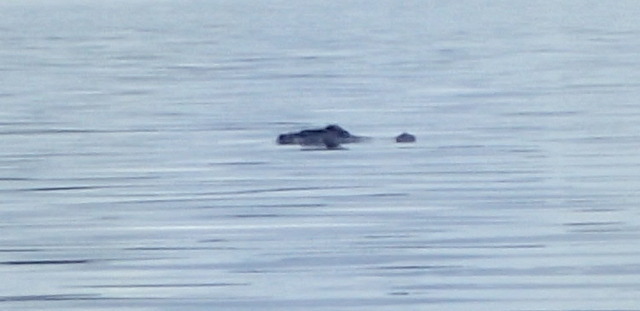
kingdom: Animalia
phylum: Chordata
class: Crocodylia
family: Alligatoridae
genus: Alligator
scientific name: Alligator mississippiensis
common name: American alligator
